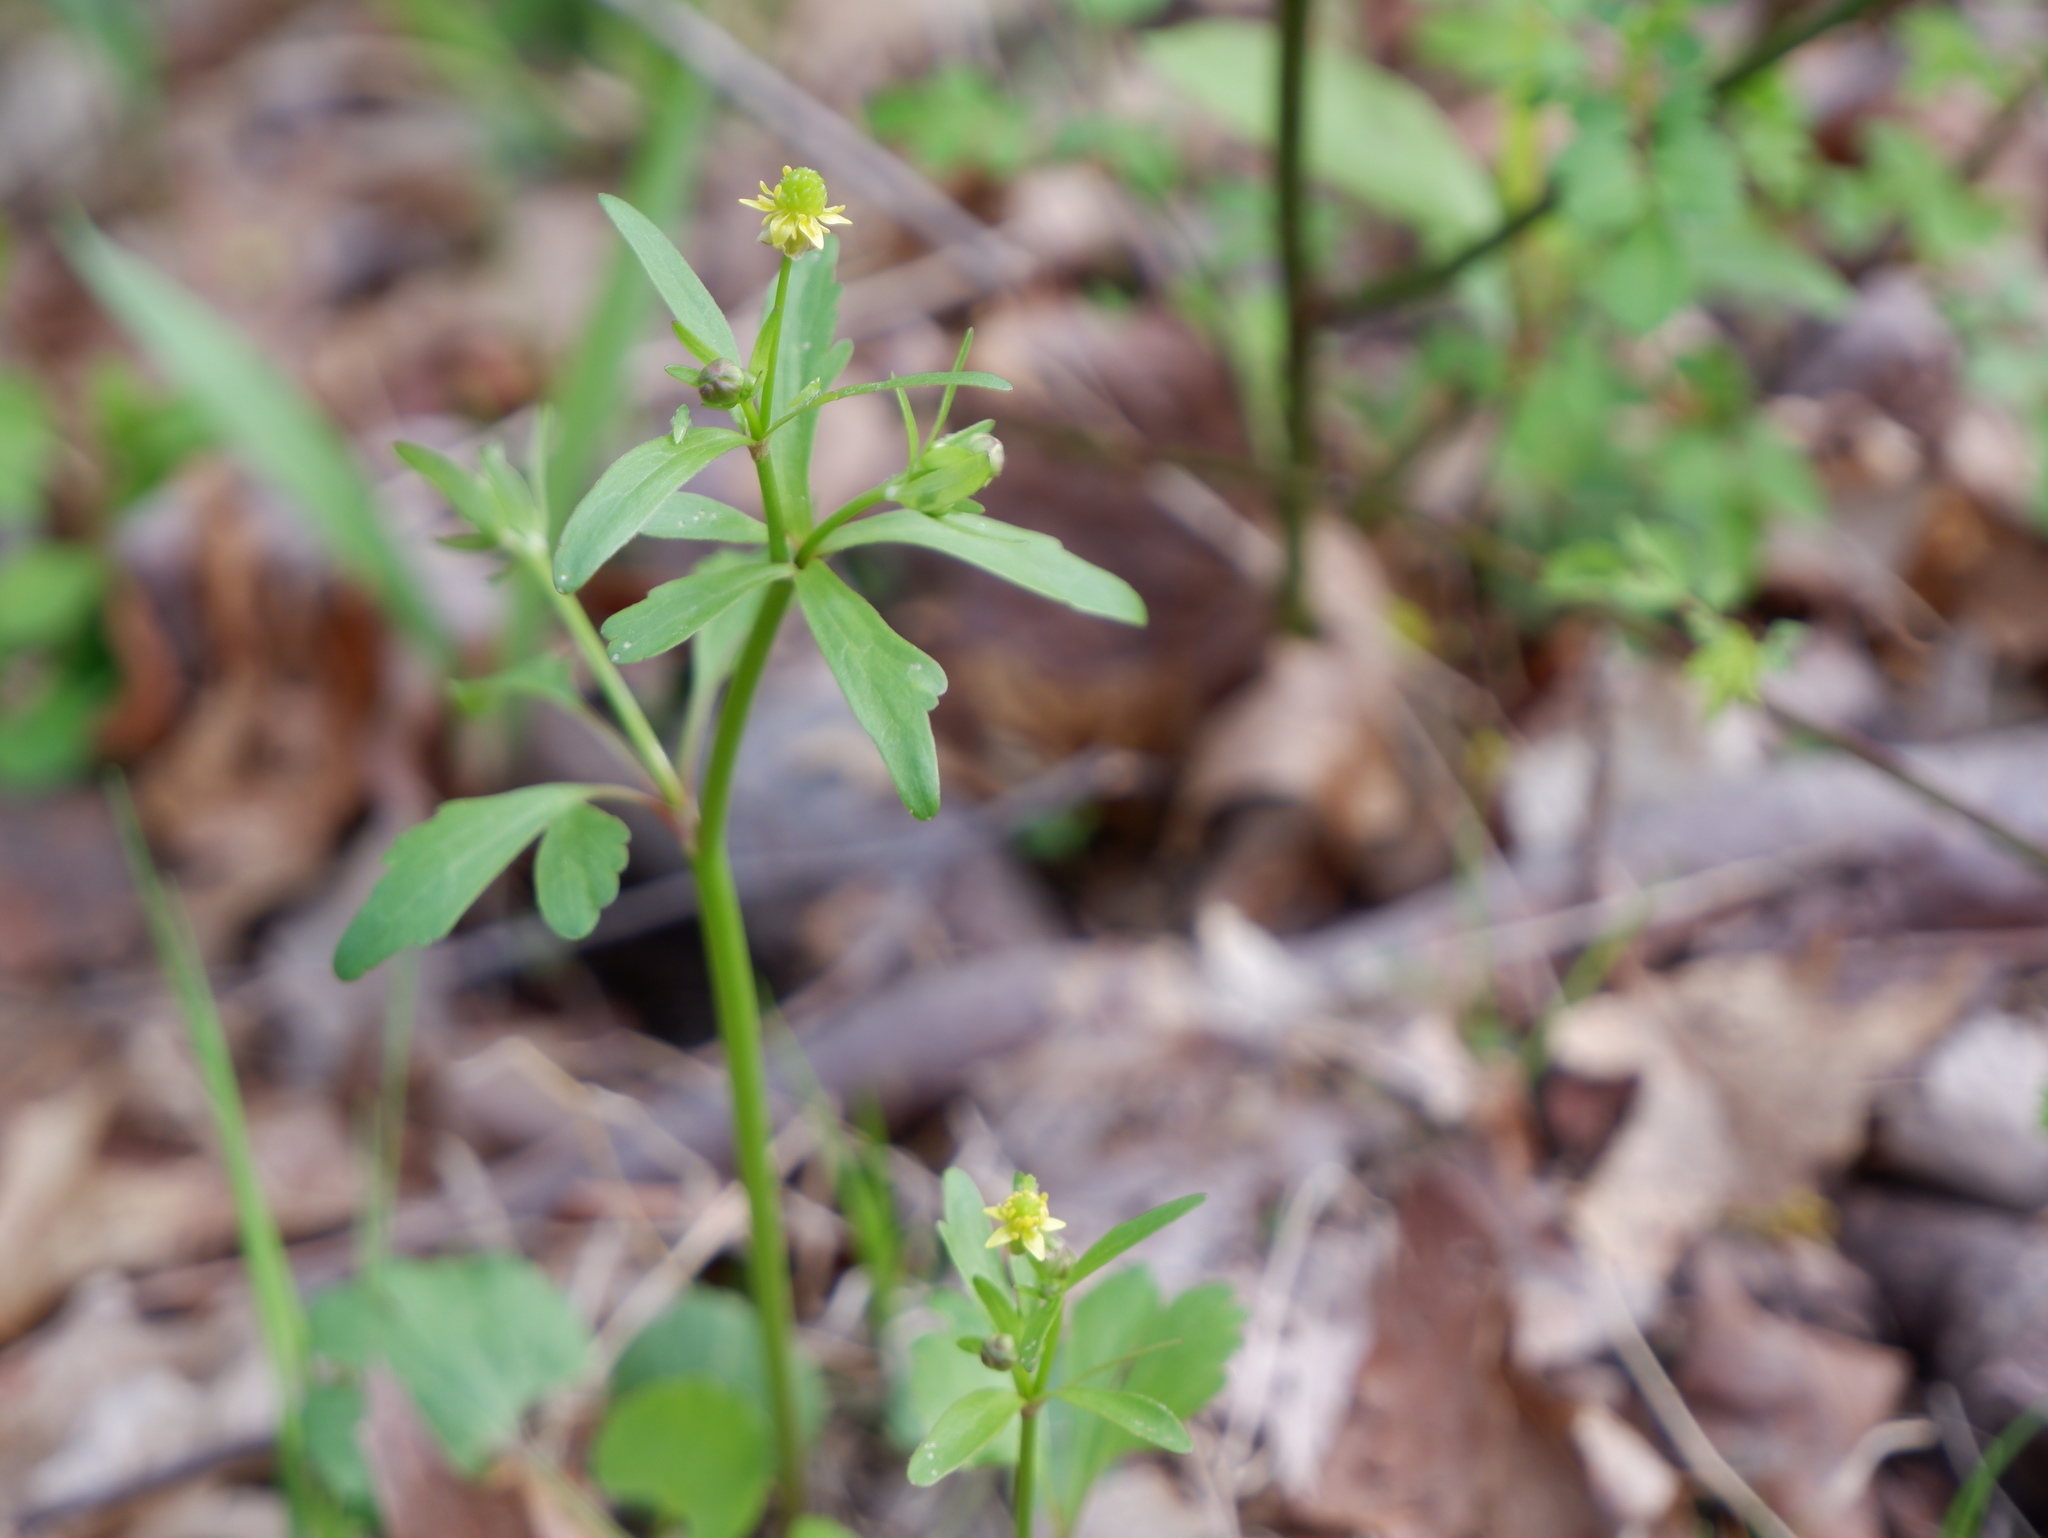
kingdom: Plantae
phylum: Tracheophyta
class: Magnoliopsida
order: Ranunculales
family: Ranunculaceae
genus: Ranunculus
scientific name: Ranunculus abortivus
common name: Early wood buttercup
